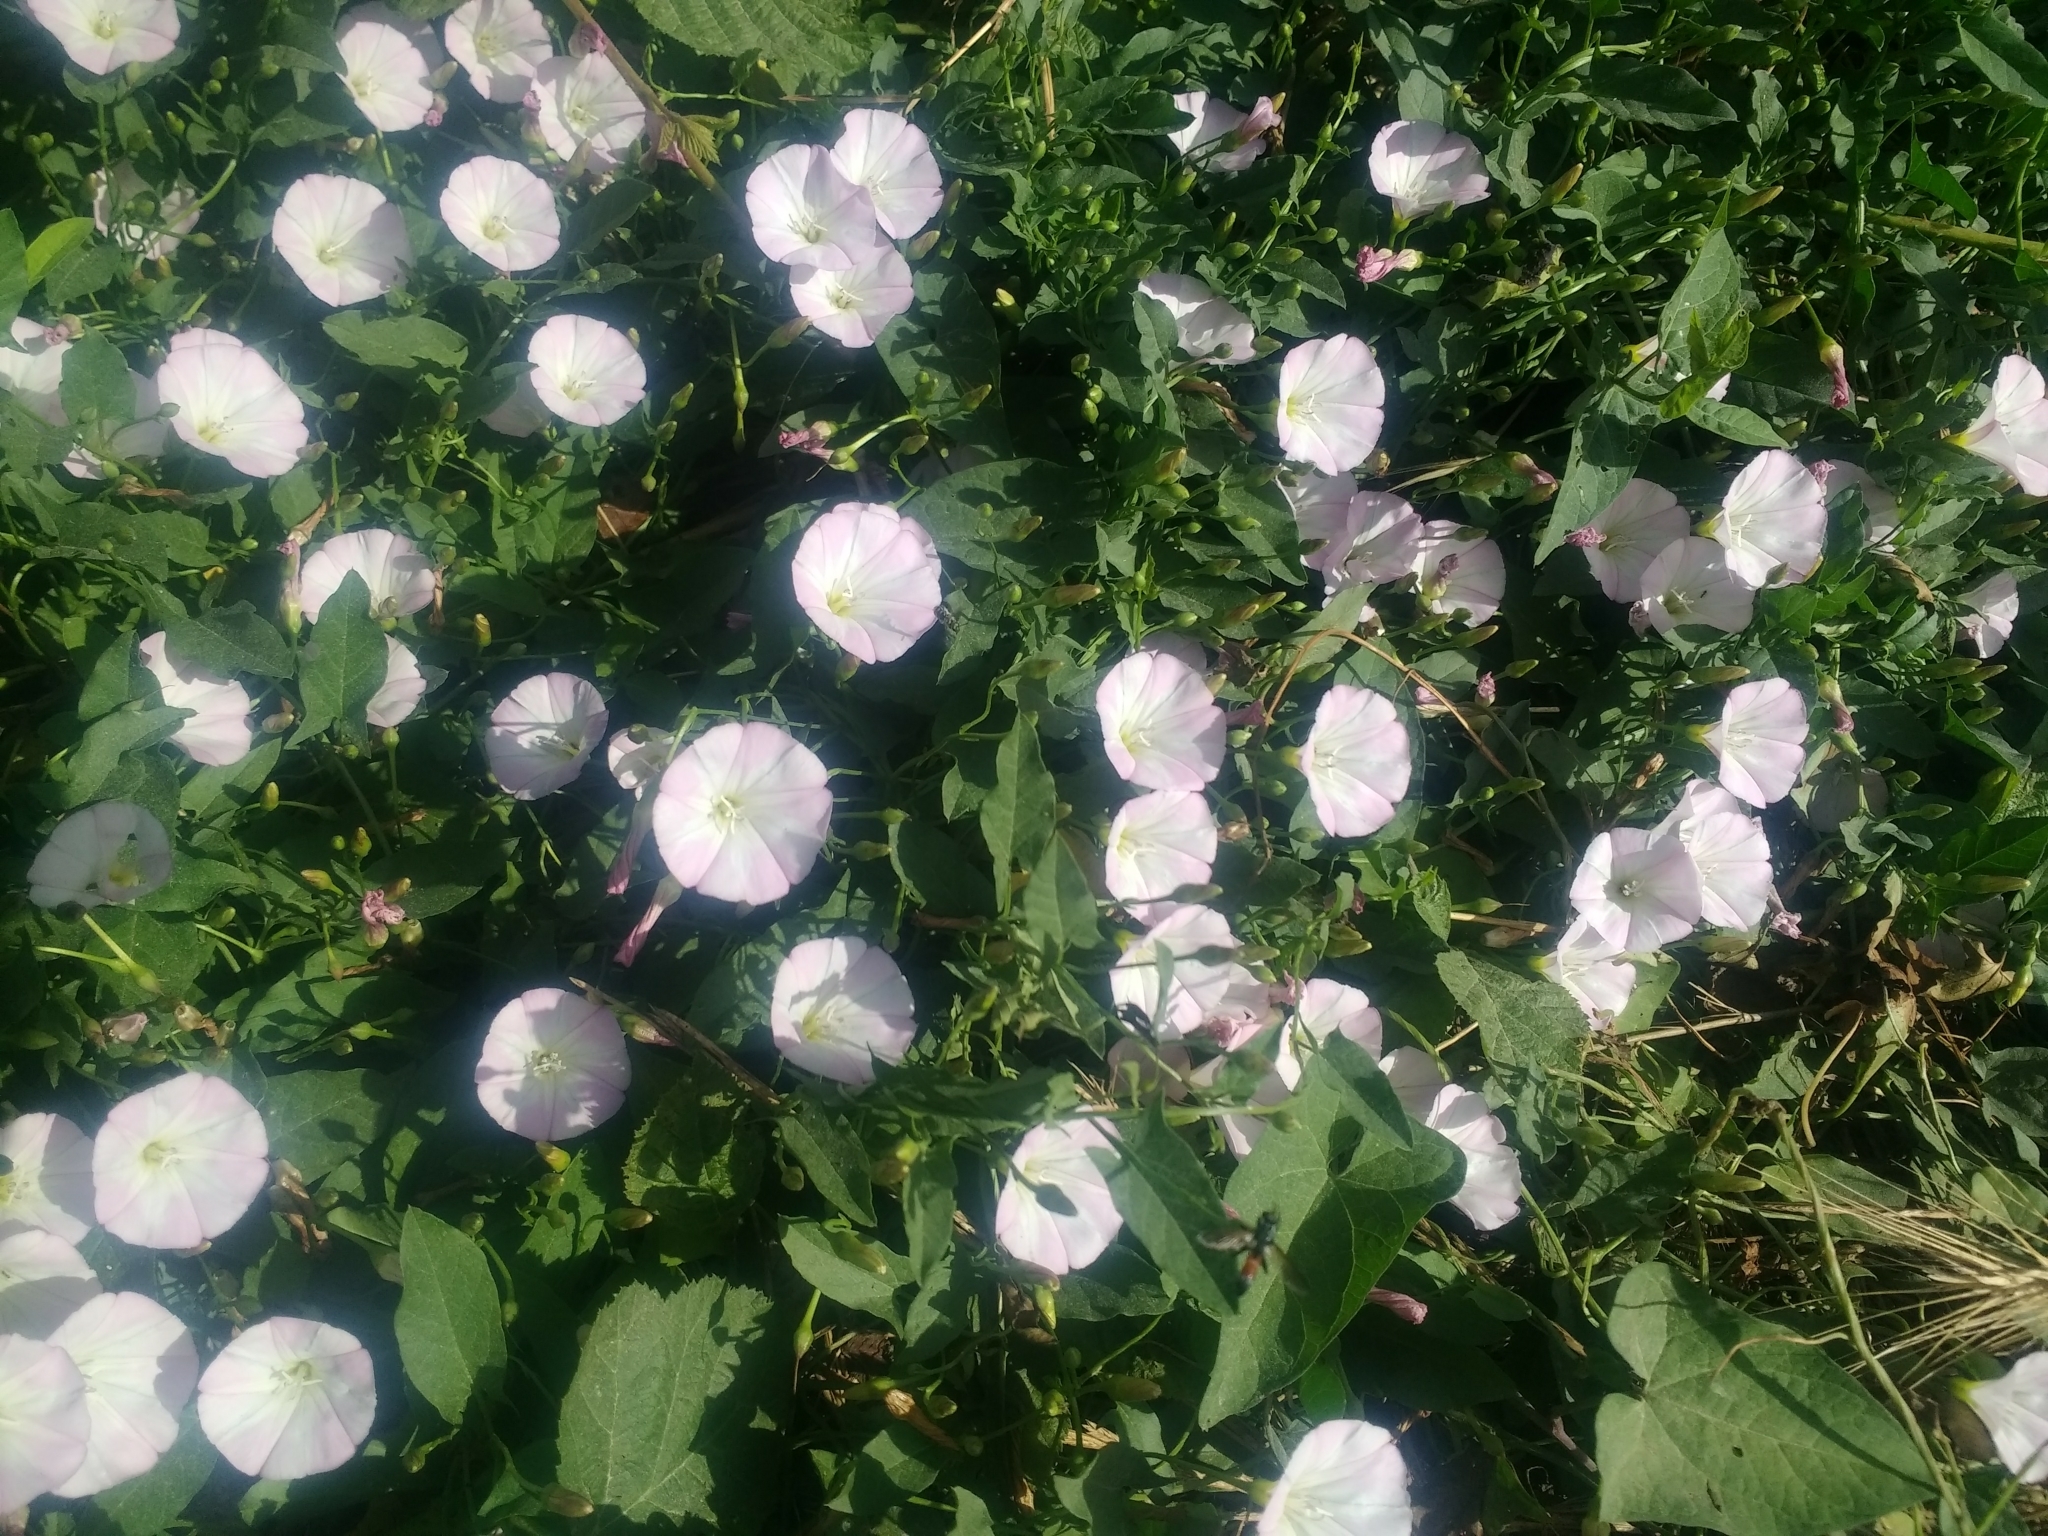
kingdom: Plantae
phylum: Tracheophyta
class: Magnoliopsida
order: Solanales
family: Convolvulaceae
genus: Convolvulus
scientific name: Convolvulus arvensis
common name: Field bindweed
